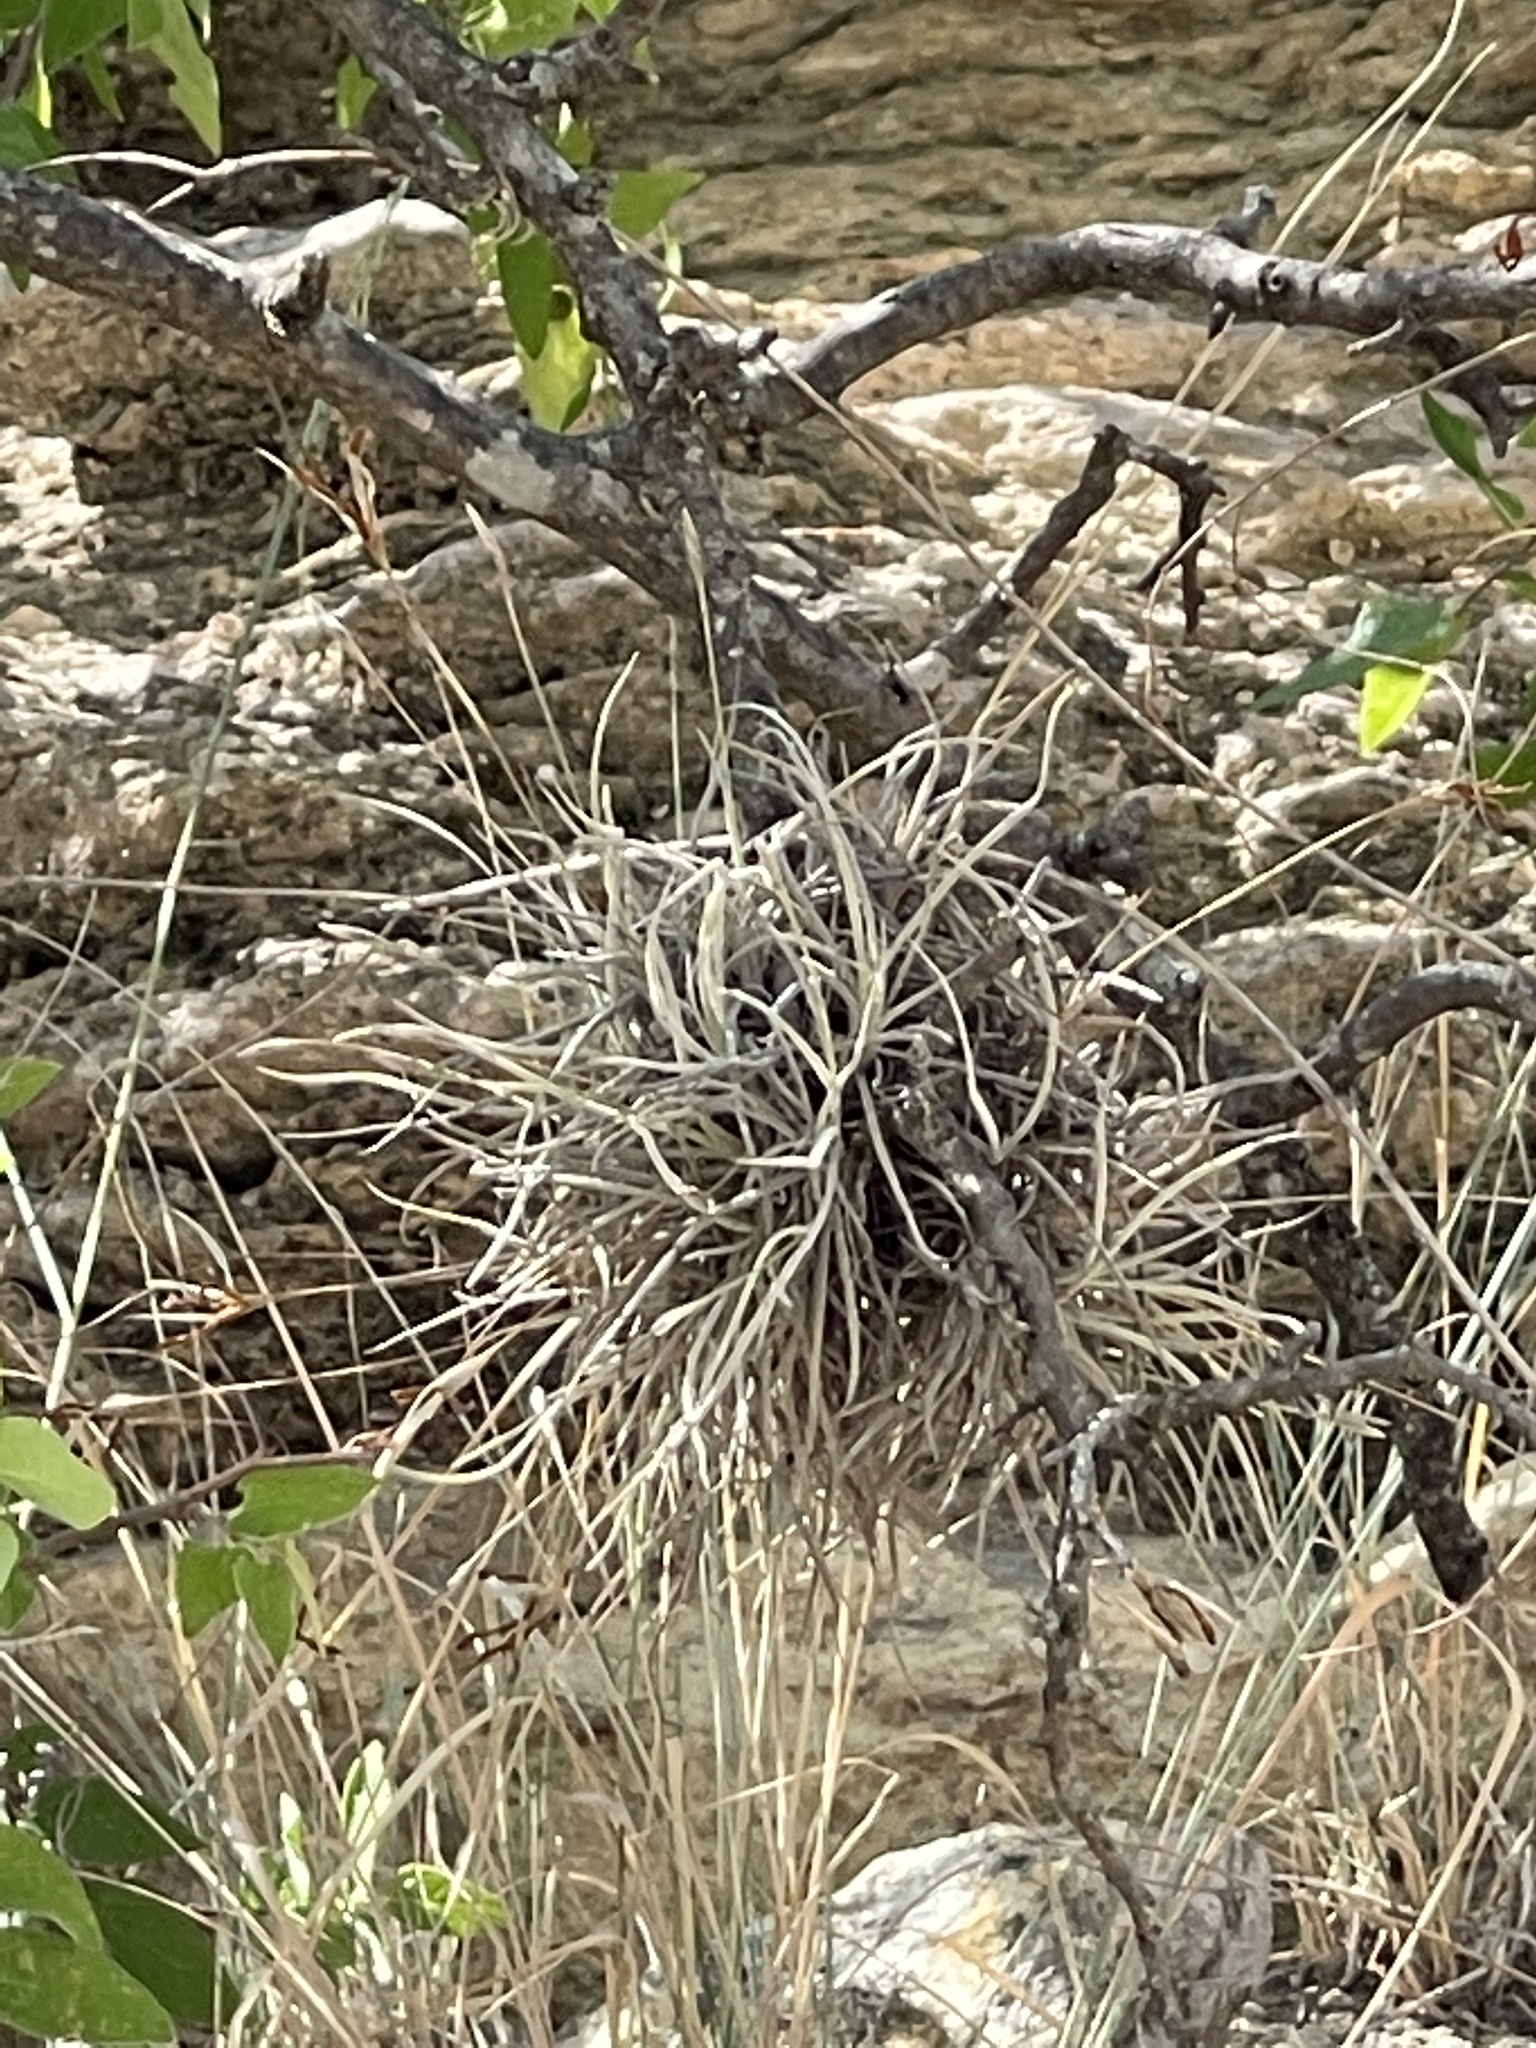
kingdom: Plantae
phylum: Tracheophyta
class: Liliopsida
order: Poales
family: Bromeliaceae
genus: Tillandsia
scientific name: Tillandsia recurvata
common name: Small ballmoss
